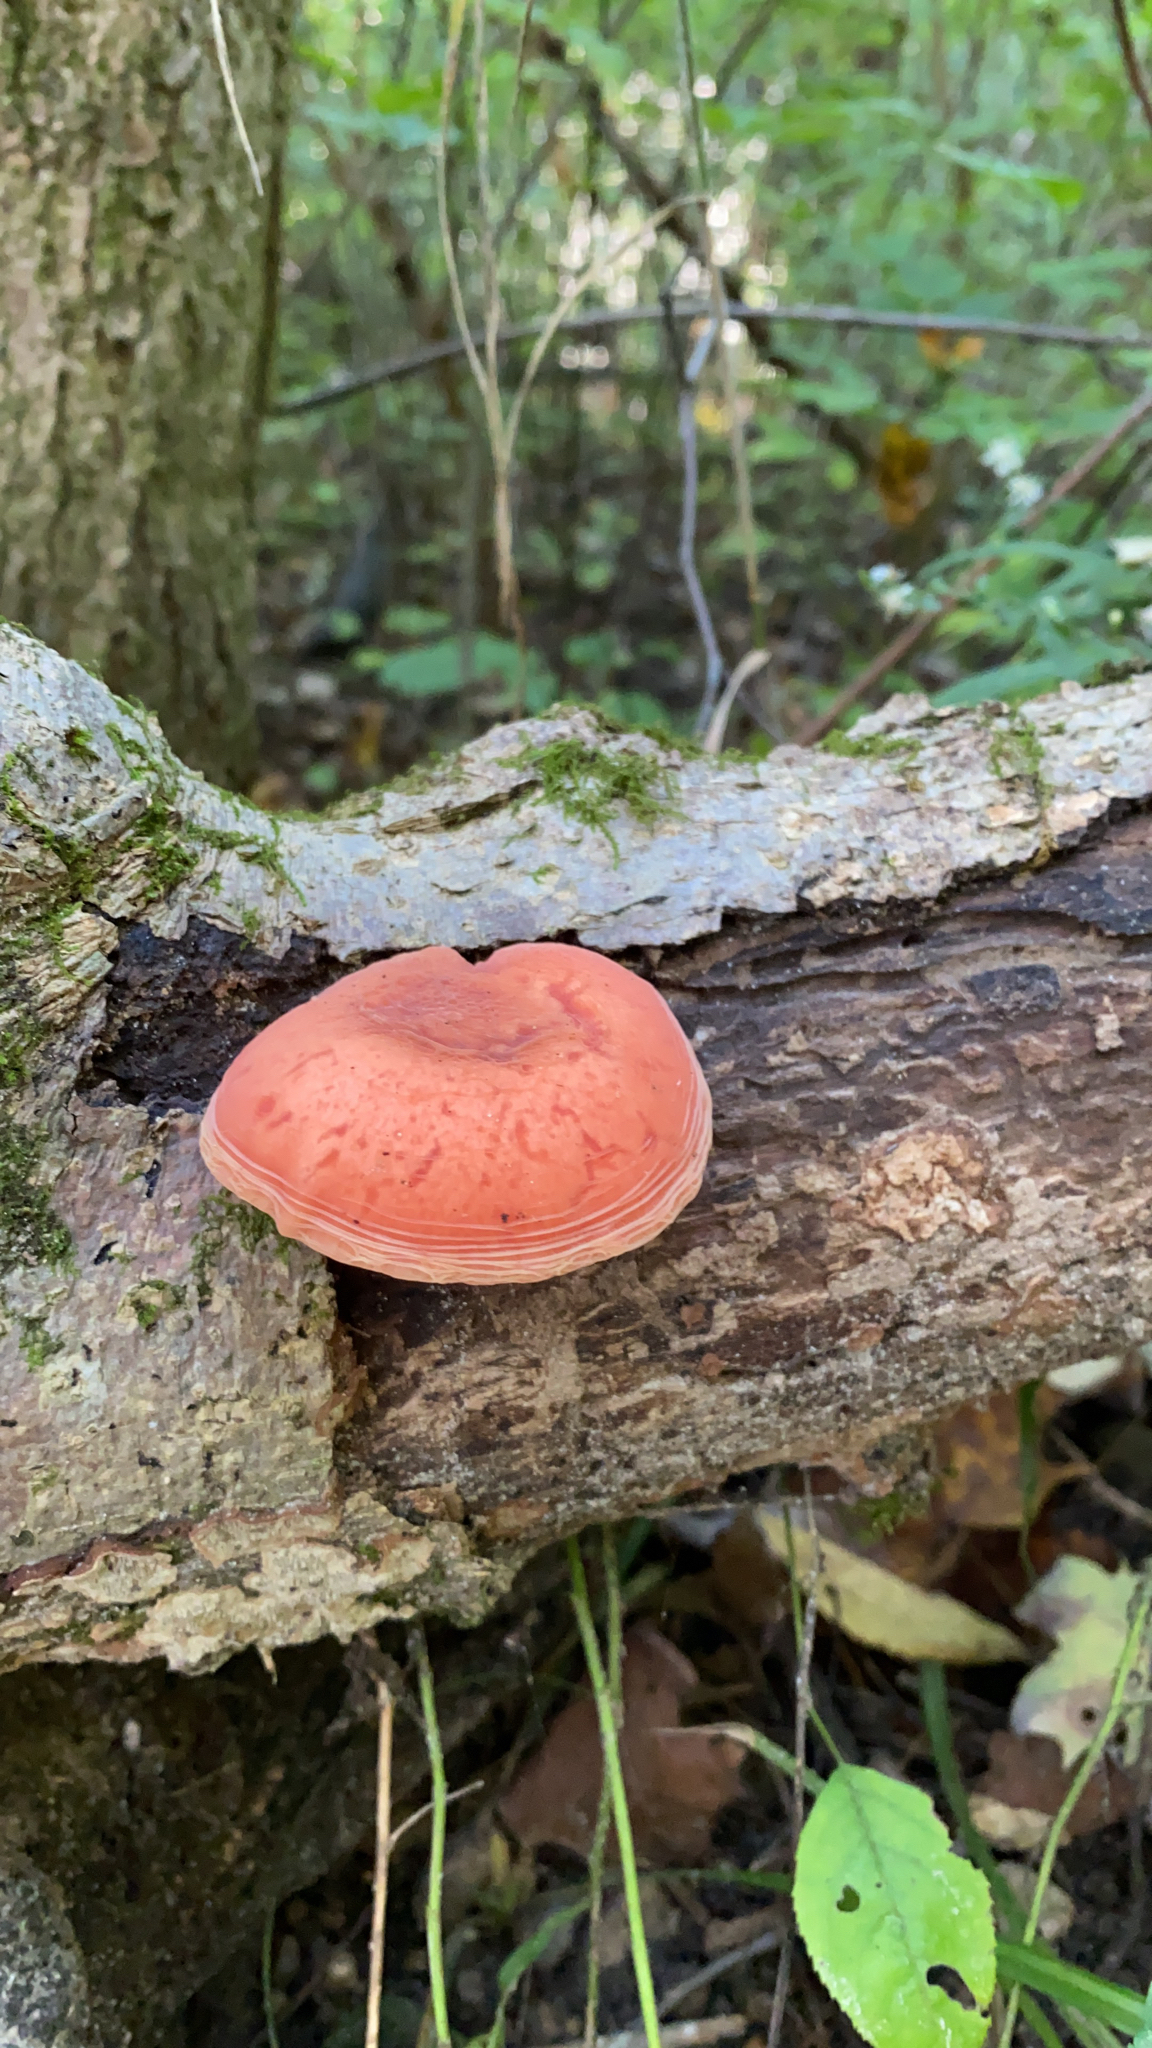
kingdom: Fungi
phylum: Basidiomycota
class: Agaricomycetes
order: Agaricales
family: Physalacriaceae
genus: Rhodotus
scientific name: Rhodotus palmatus
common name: Wrinkled peach
